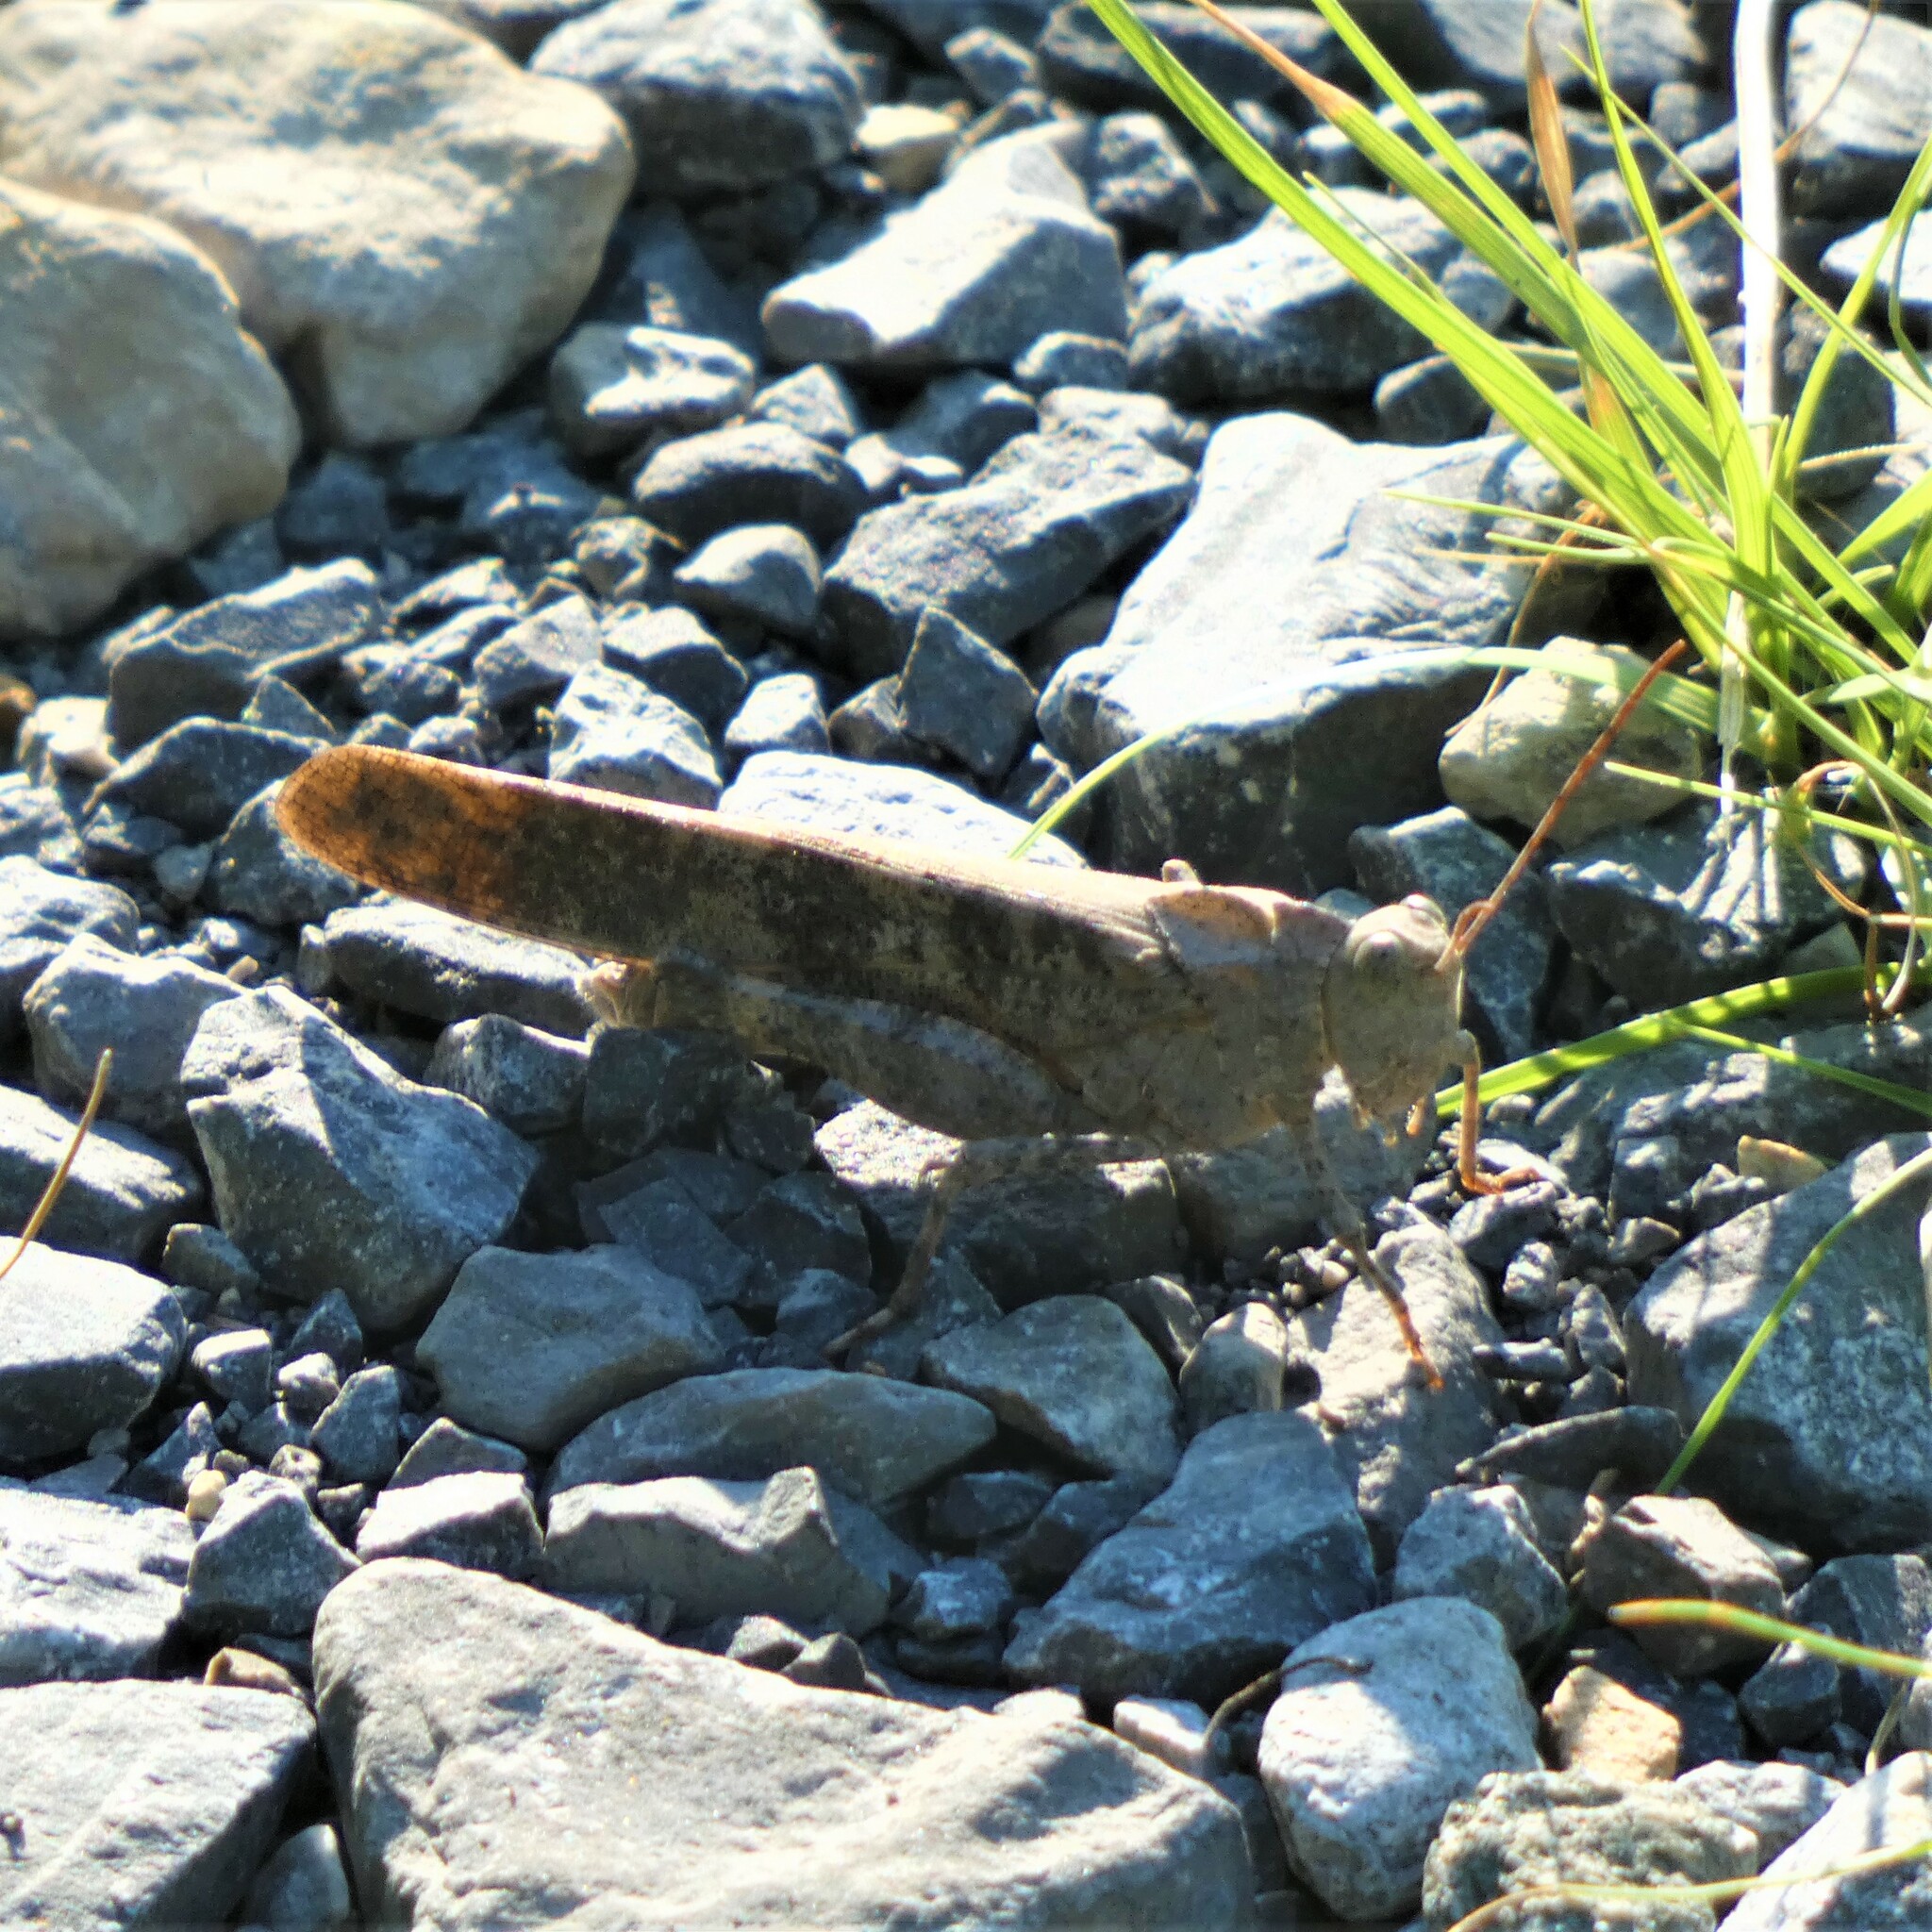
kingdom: Animalia
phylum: Arthropoda
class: Insecta
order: Orthoptera
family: Acrididae
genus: Dissosteira
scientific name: Dissosteira carolina
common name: Carolina grasshopper
